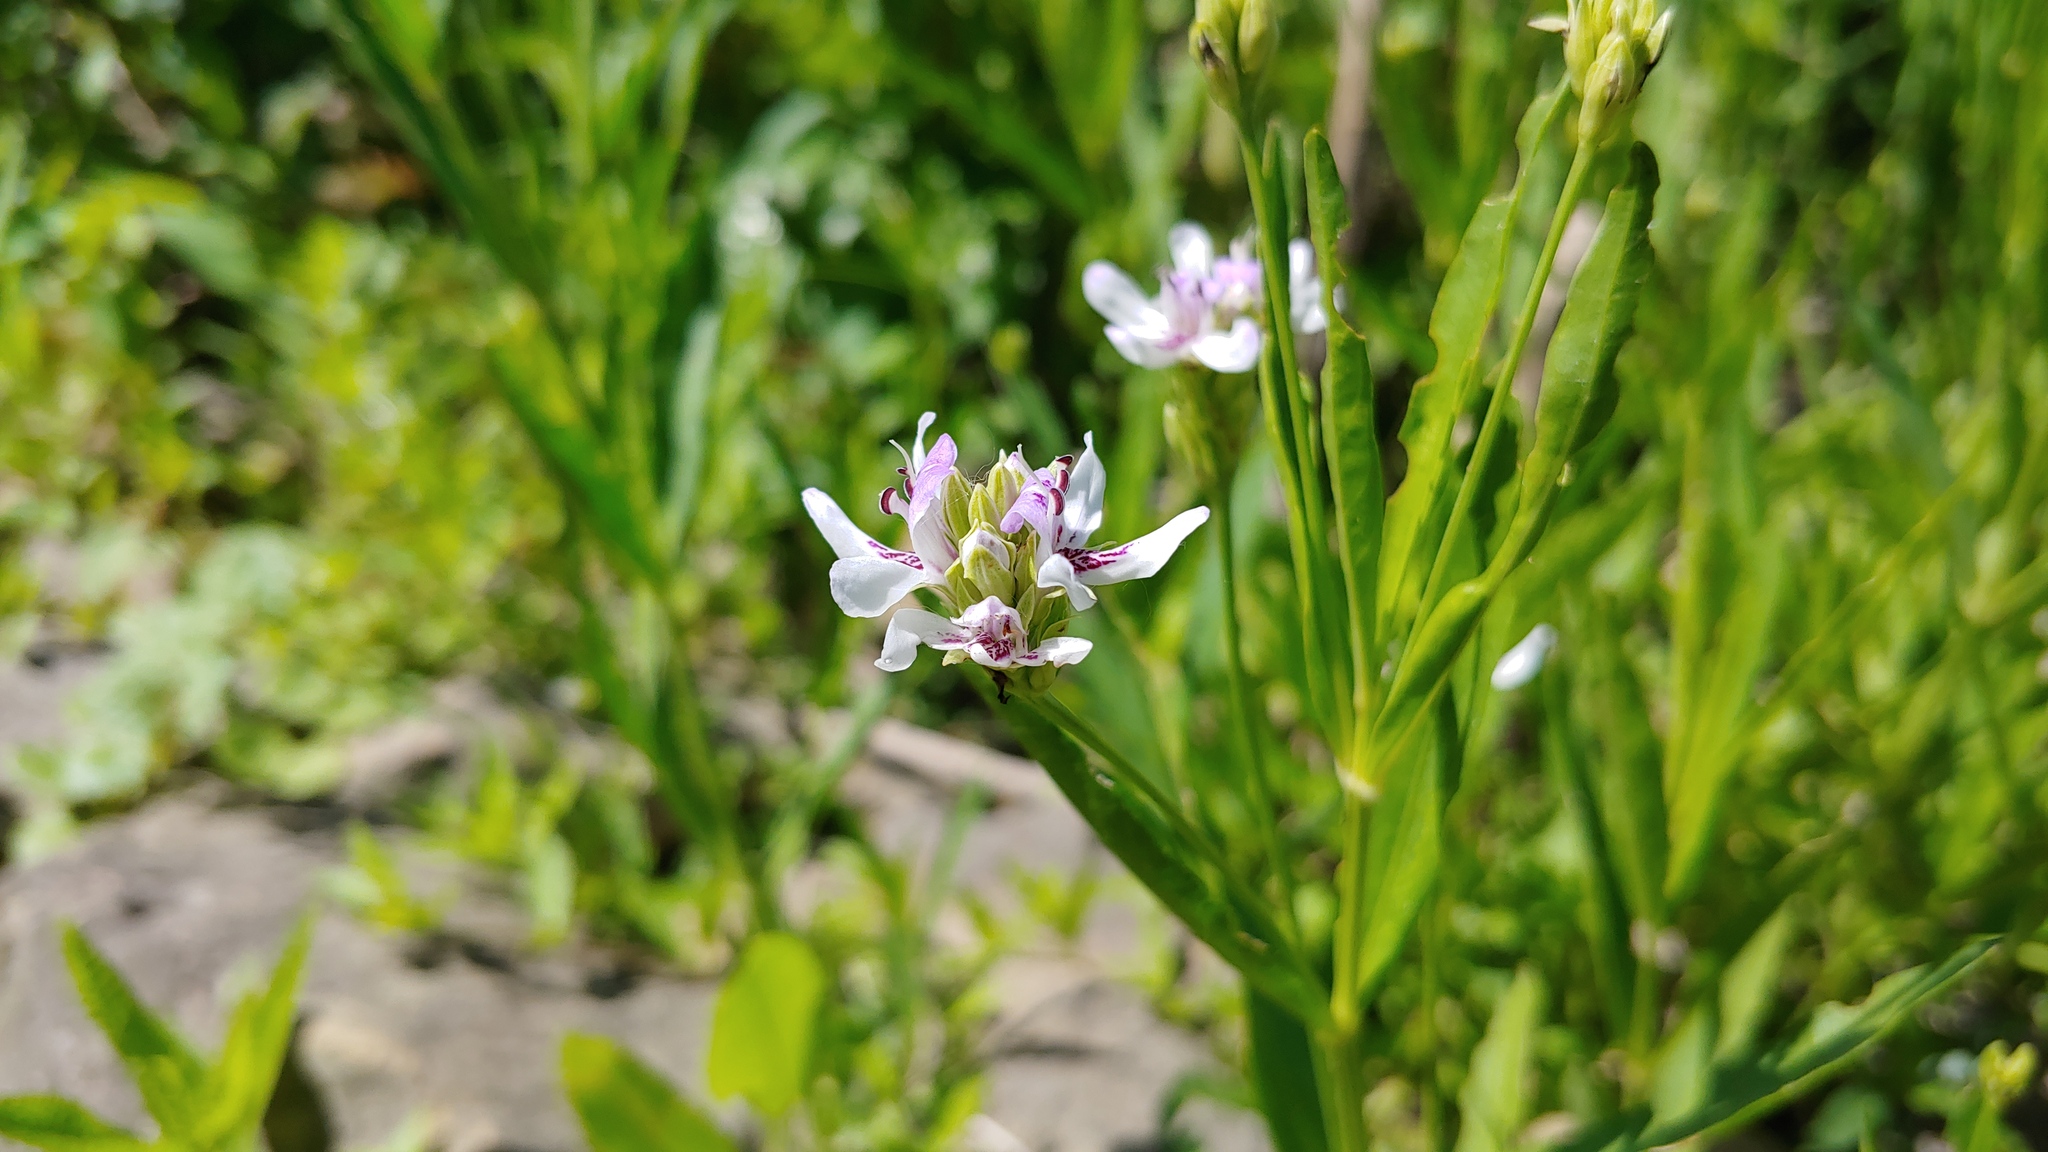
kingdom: Plantae
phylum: Tracheophyta
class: Magnoliopsida
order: Lamiales
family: Acanthaceae
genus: Dianthera
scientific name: Dianthera americana
